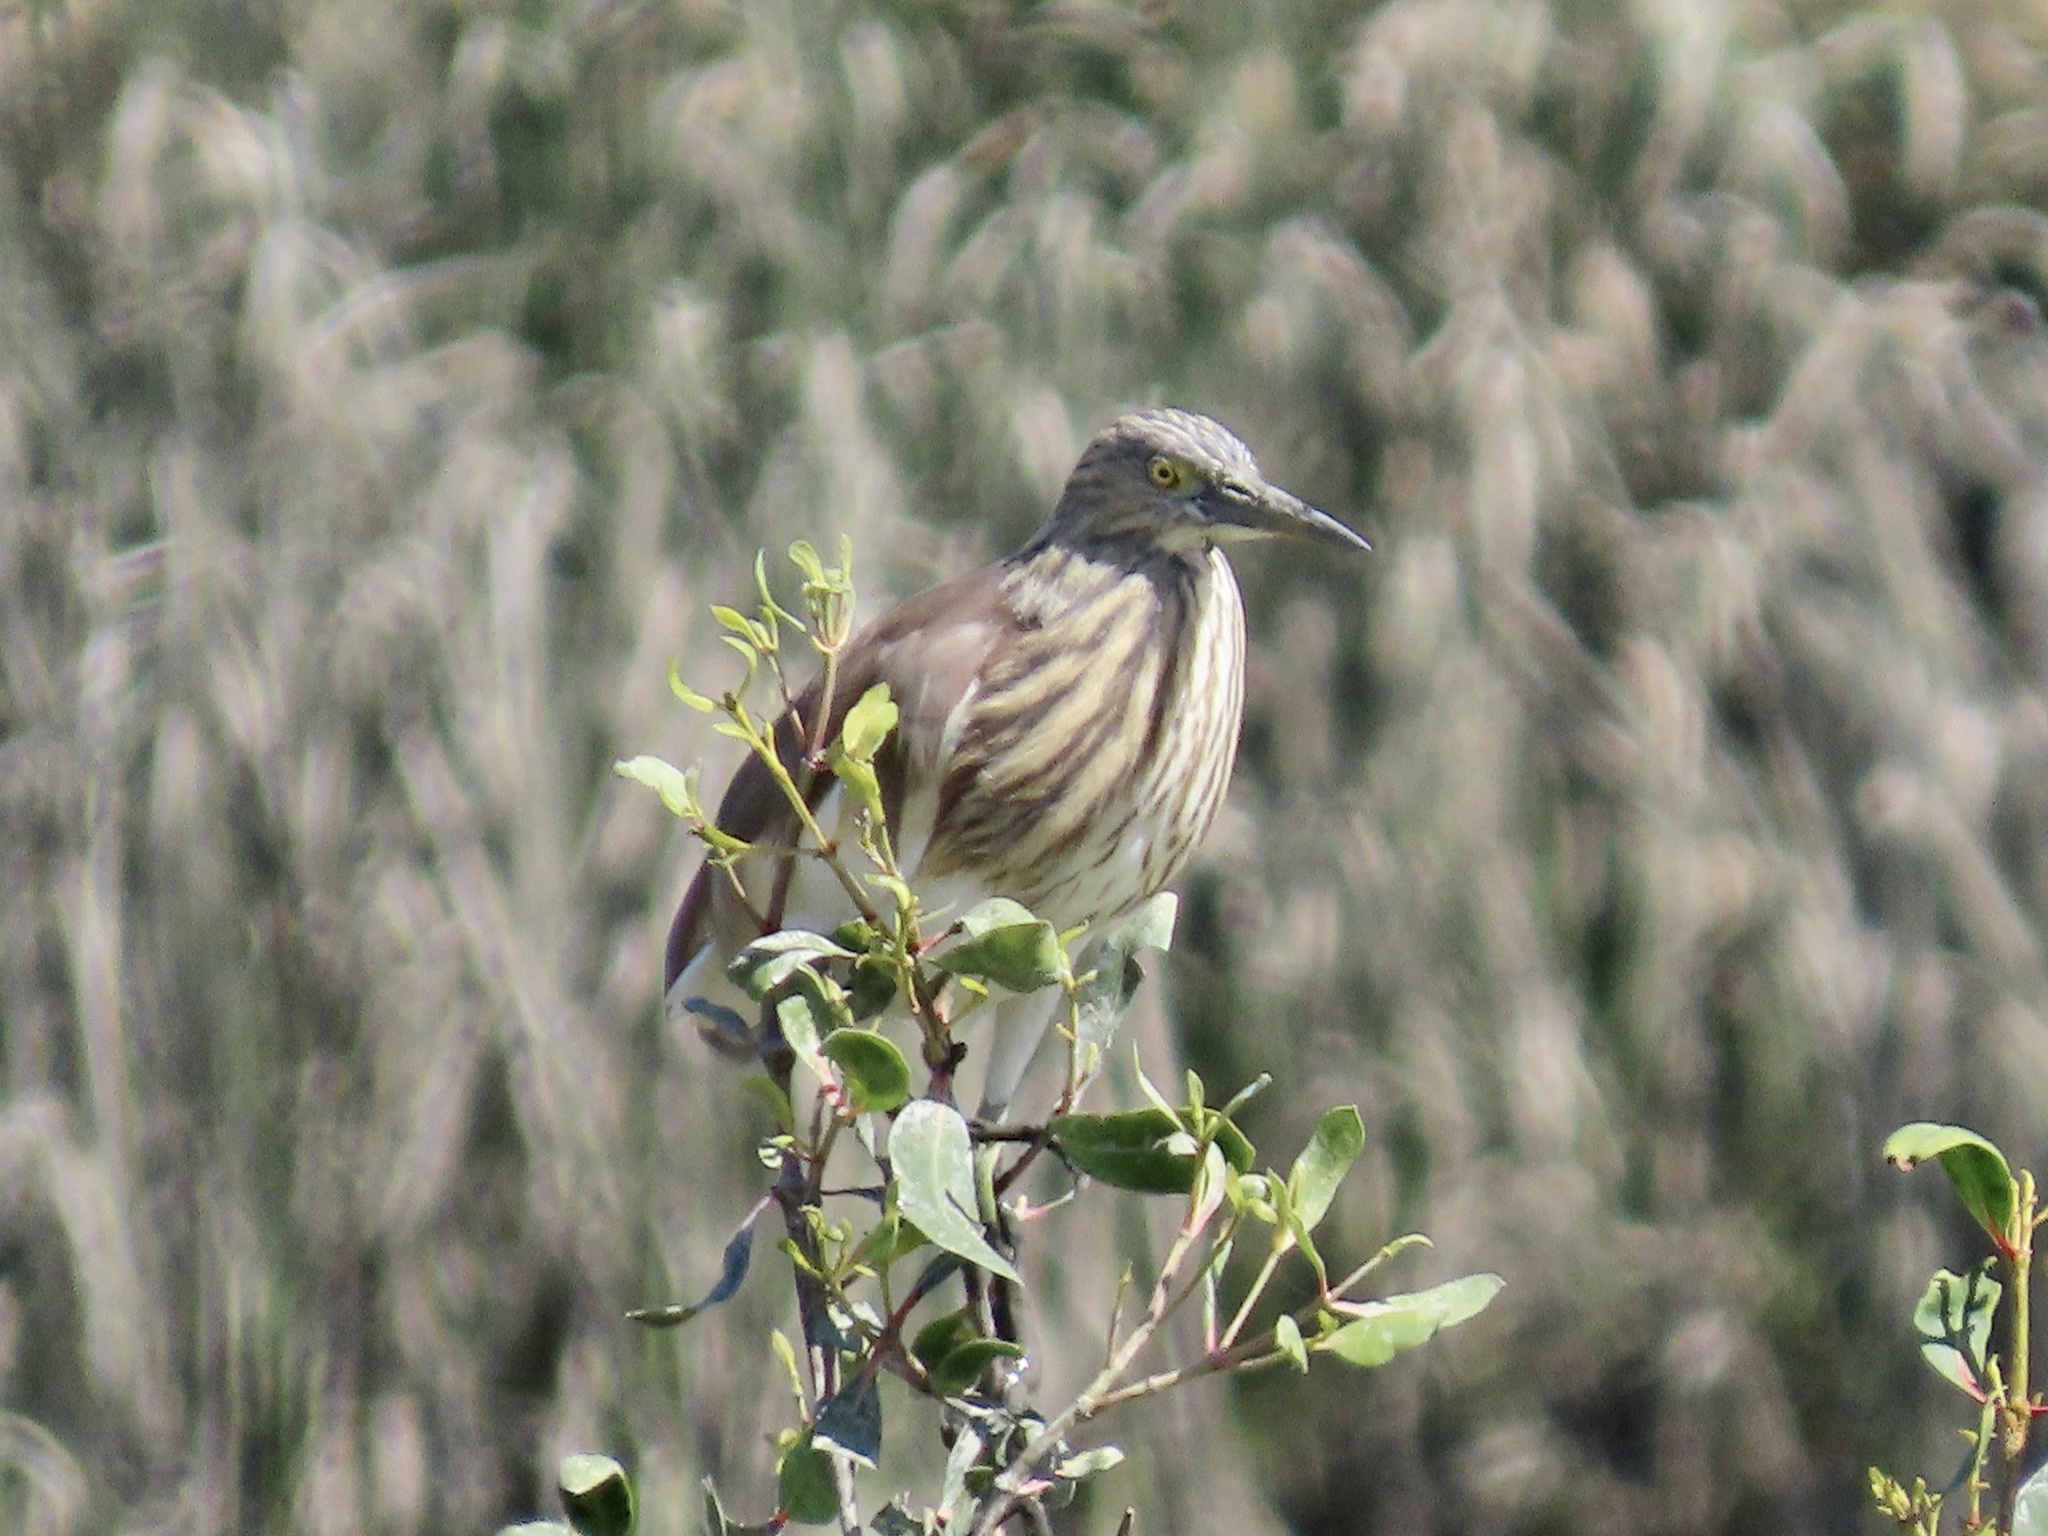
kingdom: Animalia
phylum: Chordata
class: Aves
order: Pelecaniformes
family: Ardeidae
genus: Ardeola
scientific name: Ardeola bacchus
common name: Chinese pond heron
